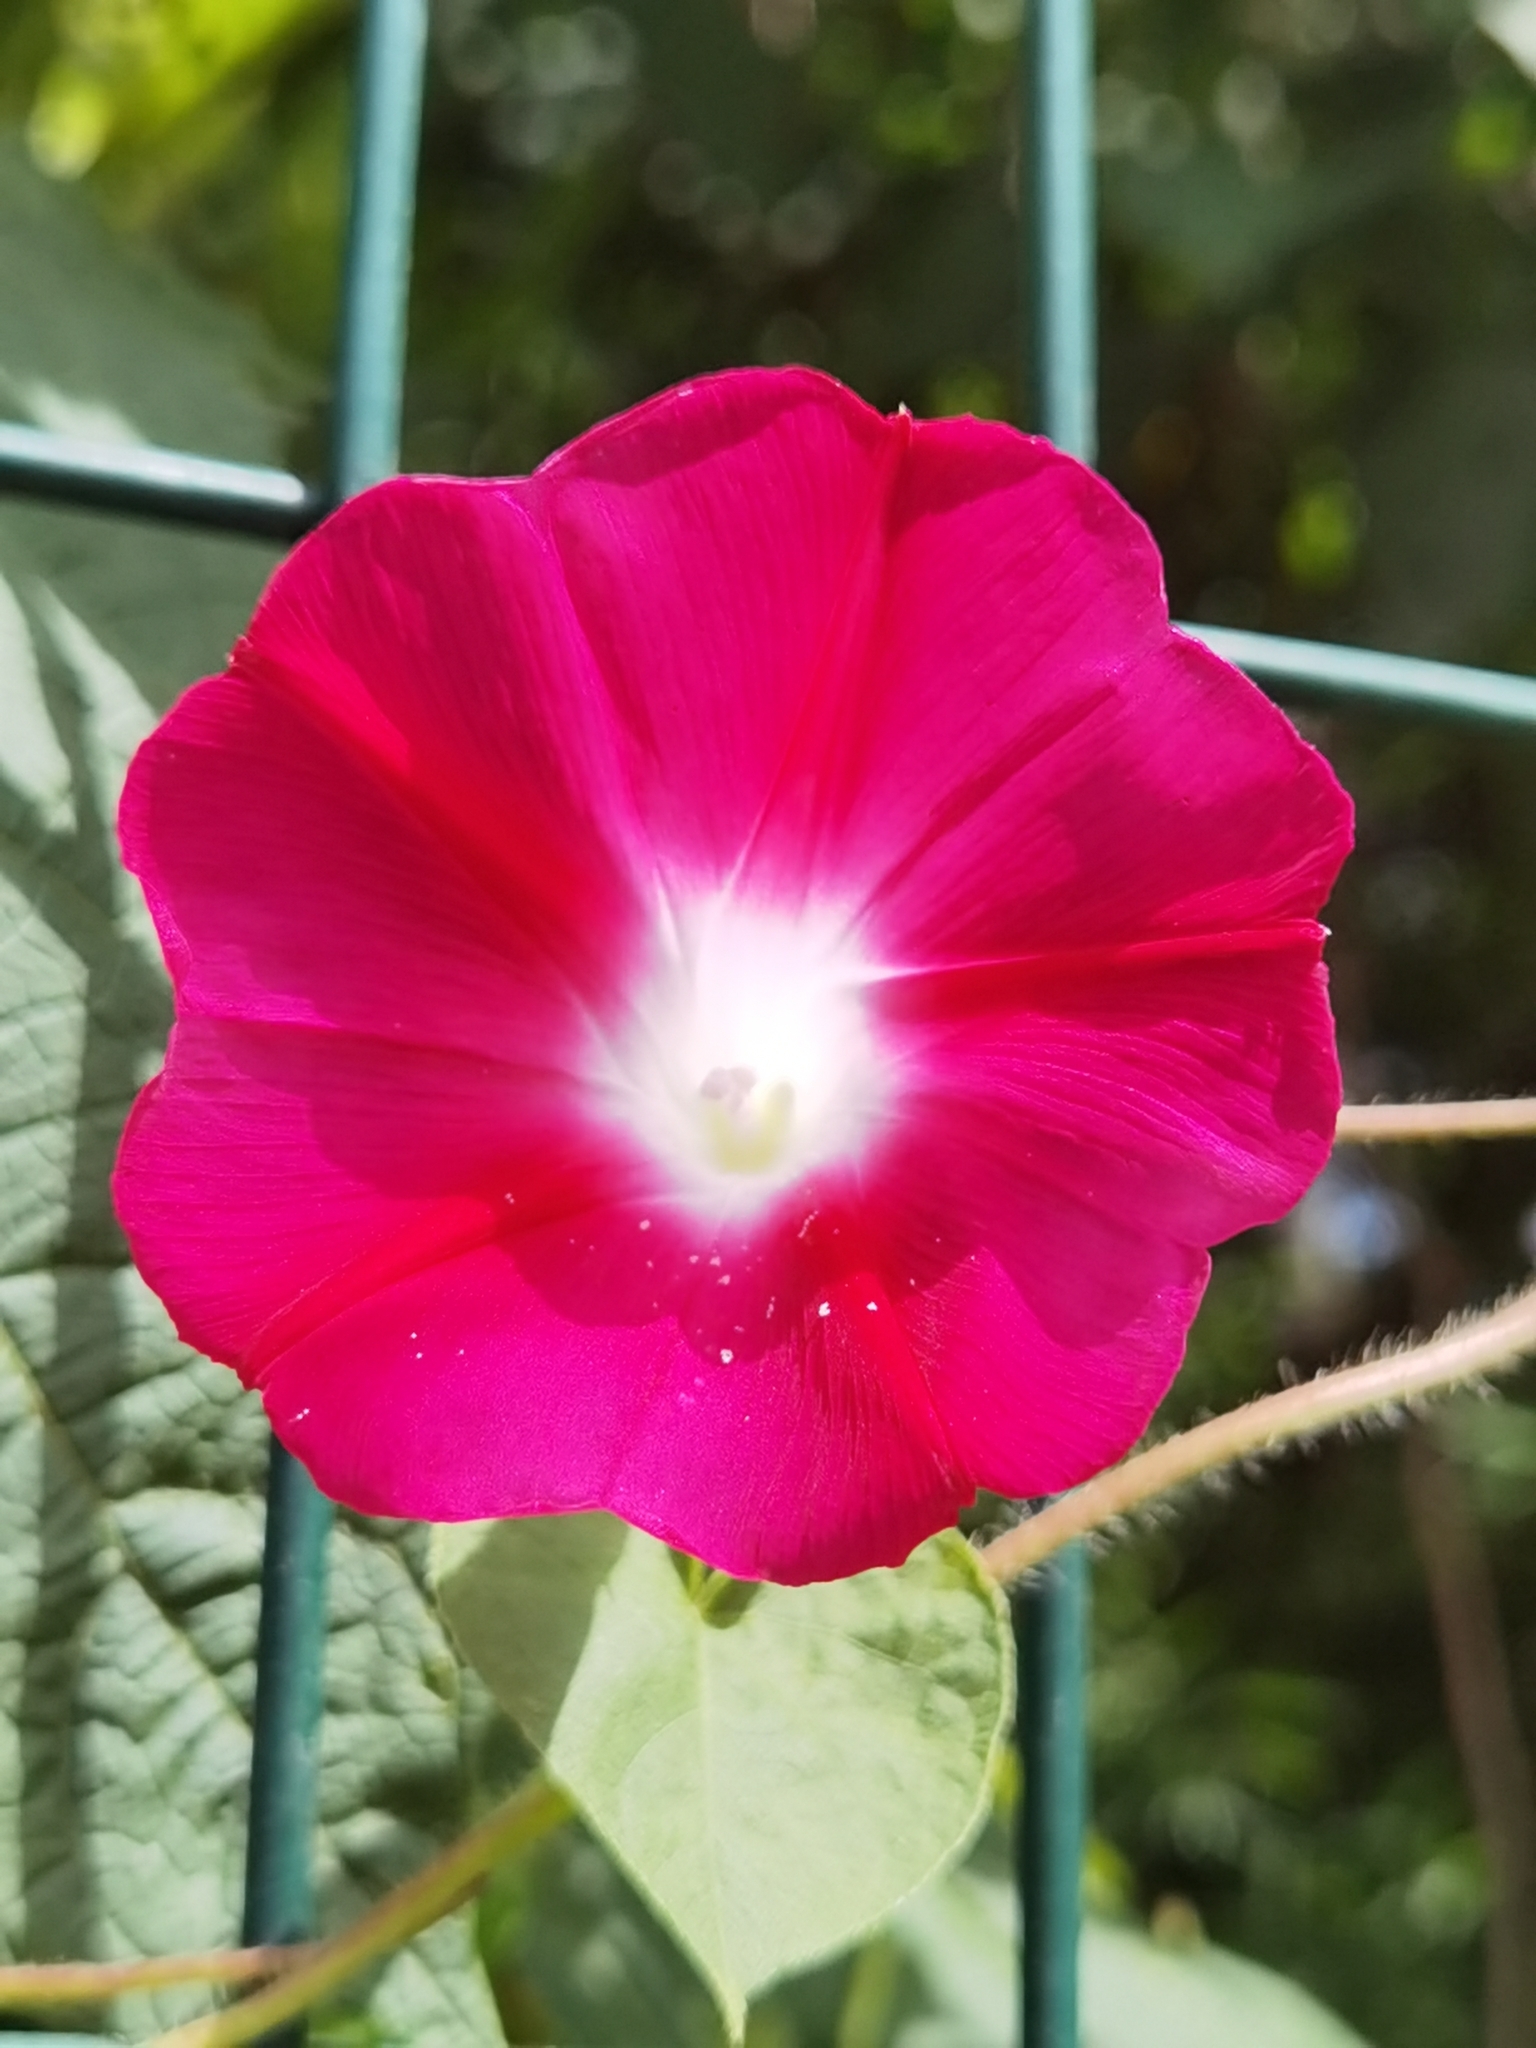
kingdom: Plantae
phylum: Tracheophyta
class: Magnoliopsida
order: Solanales
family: Convolvulaceae
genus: Ipomoea
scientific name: Ipomoea purpurea
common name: Common morning-glory
